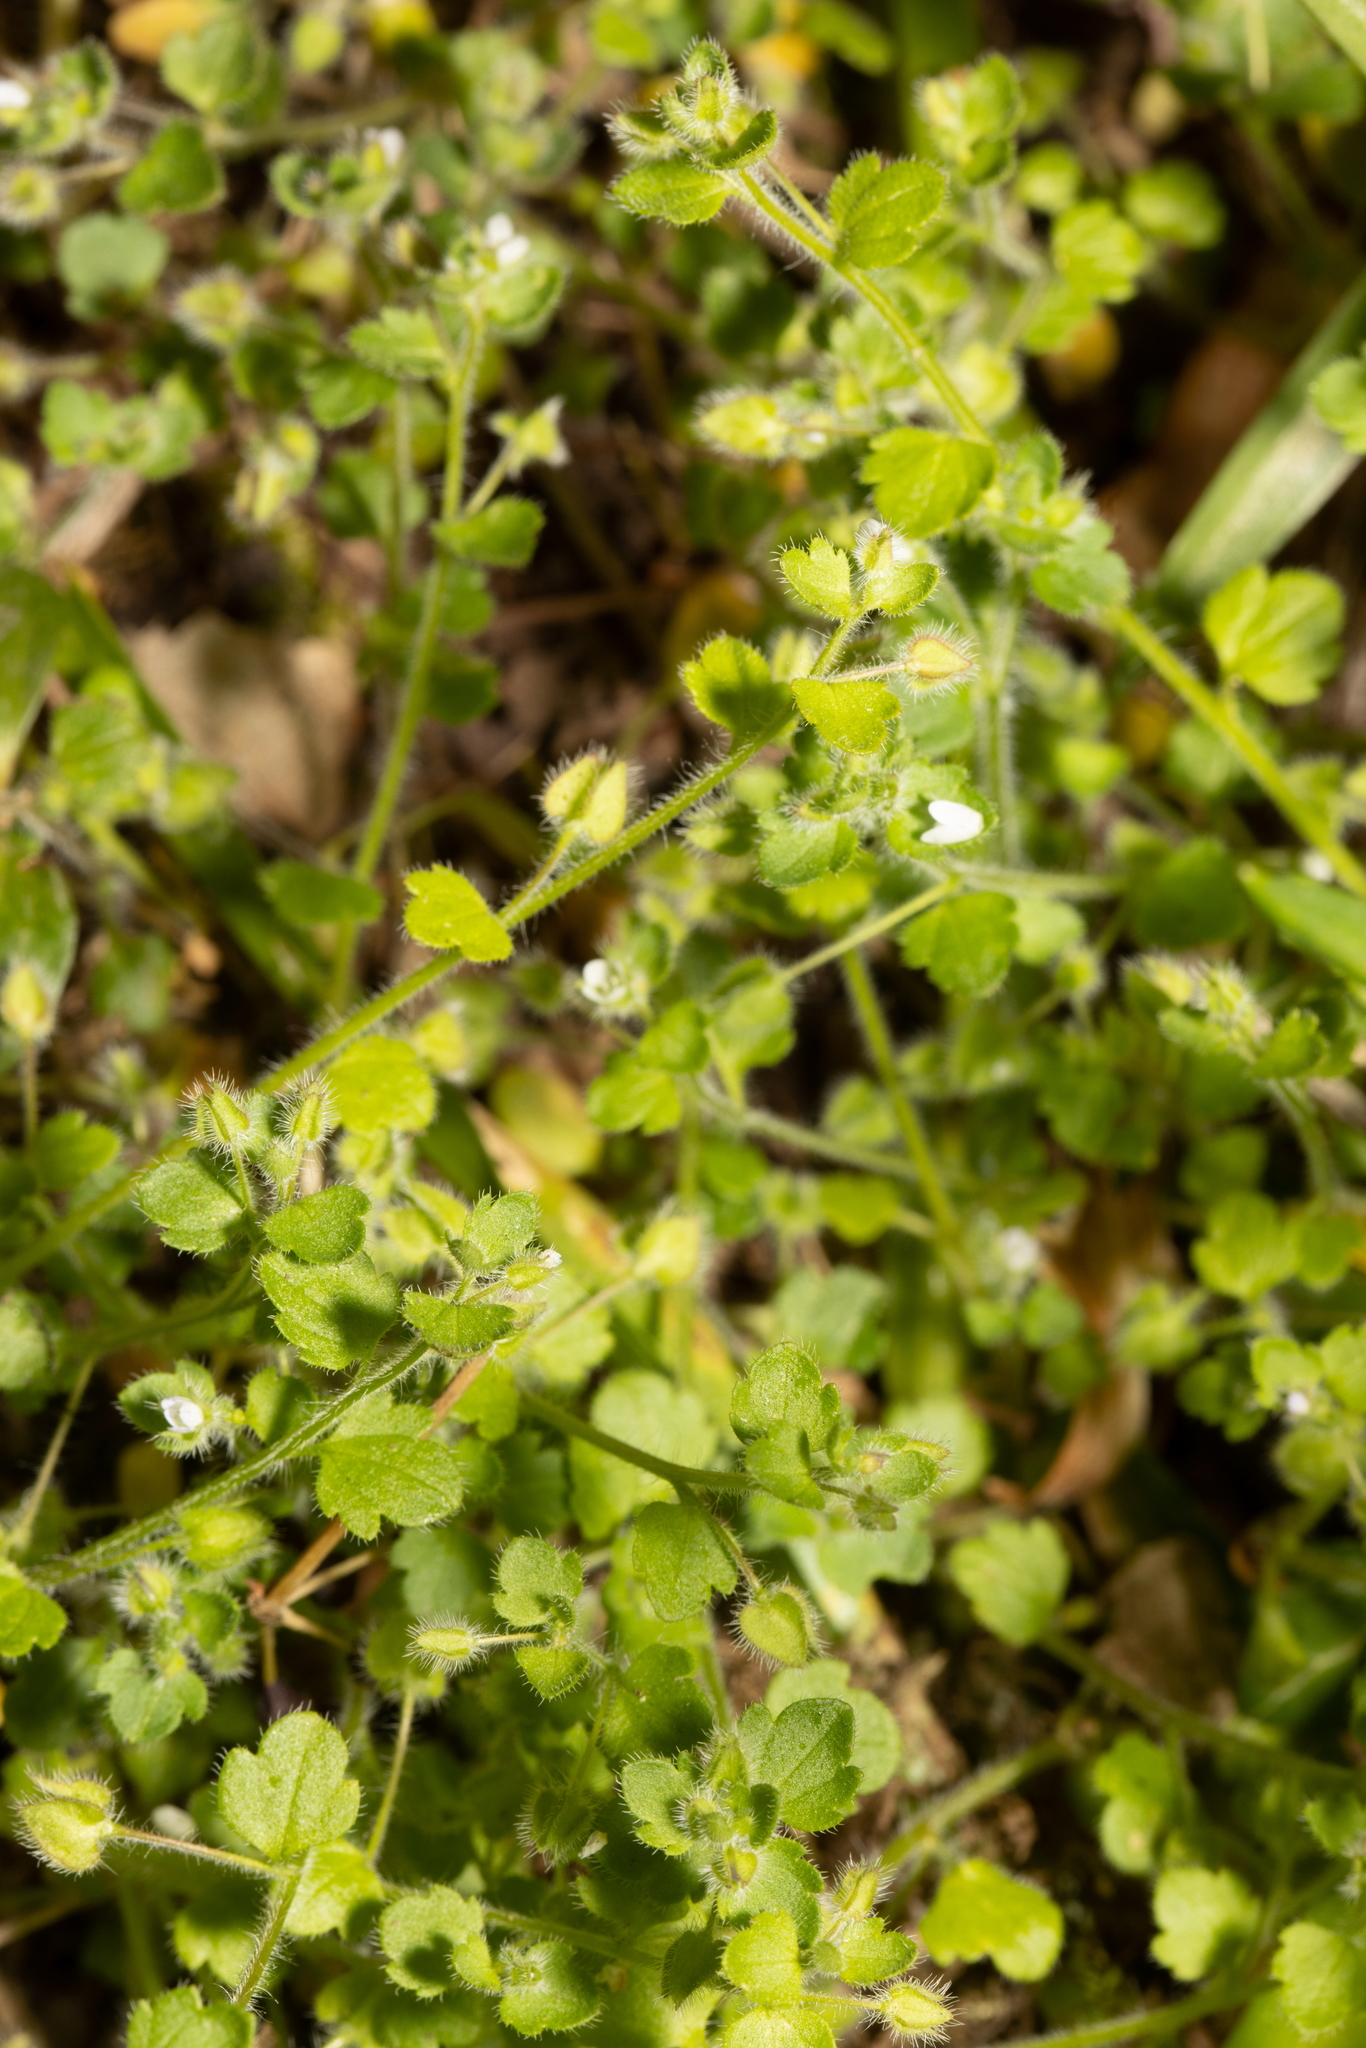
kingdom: Plantae
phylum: Tracheophyta
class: Magnoliopsida
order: Lamiales
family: Plantaginaceae
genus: Veronica
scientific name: Veronica hederifolia
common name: Ivy-leaved speedwell
